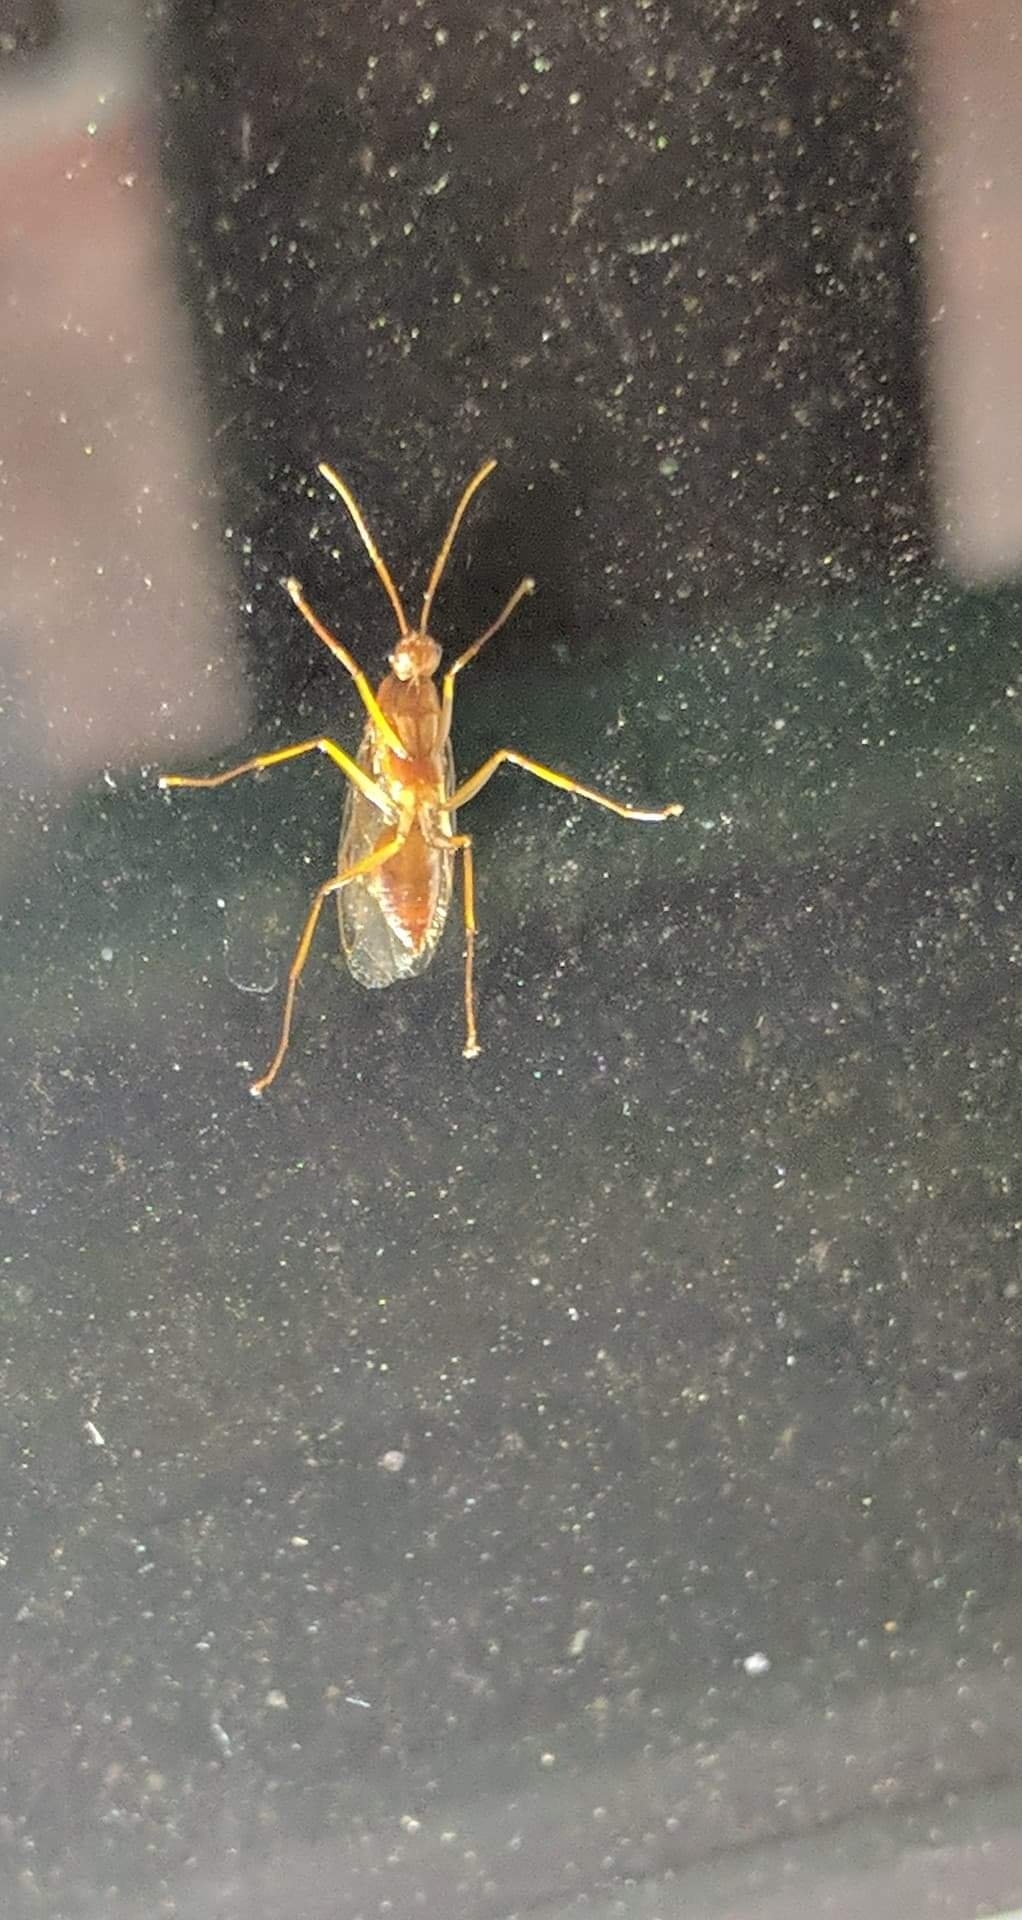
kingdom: Animalia
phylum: Arthropoda
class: Insecta
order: Hymenoptera
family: Formicidae
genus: Camponotus
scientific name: Camponotus castaneus
